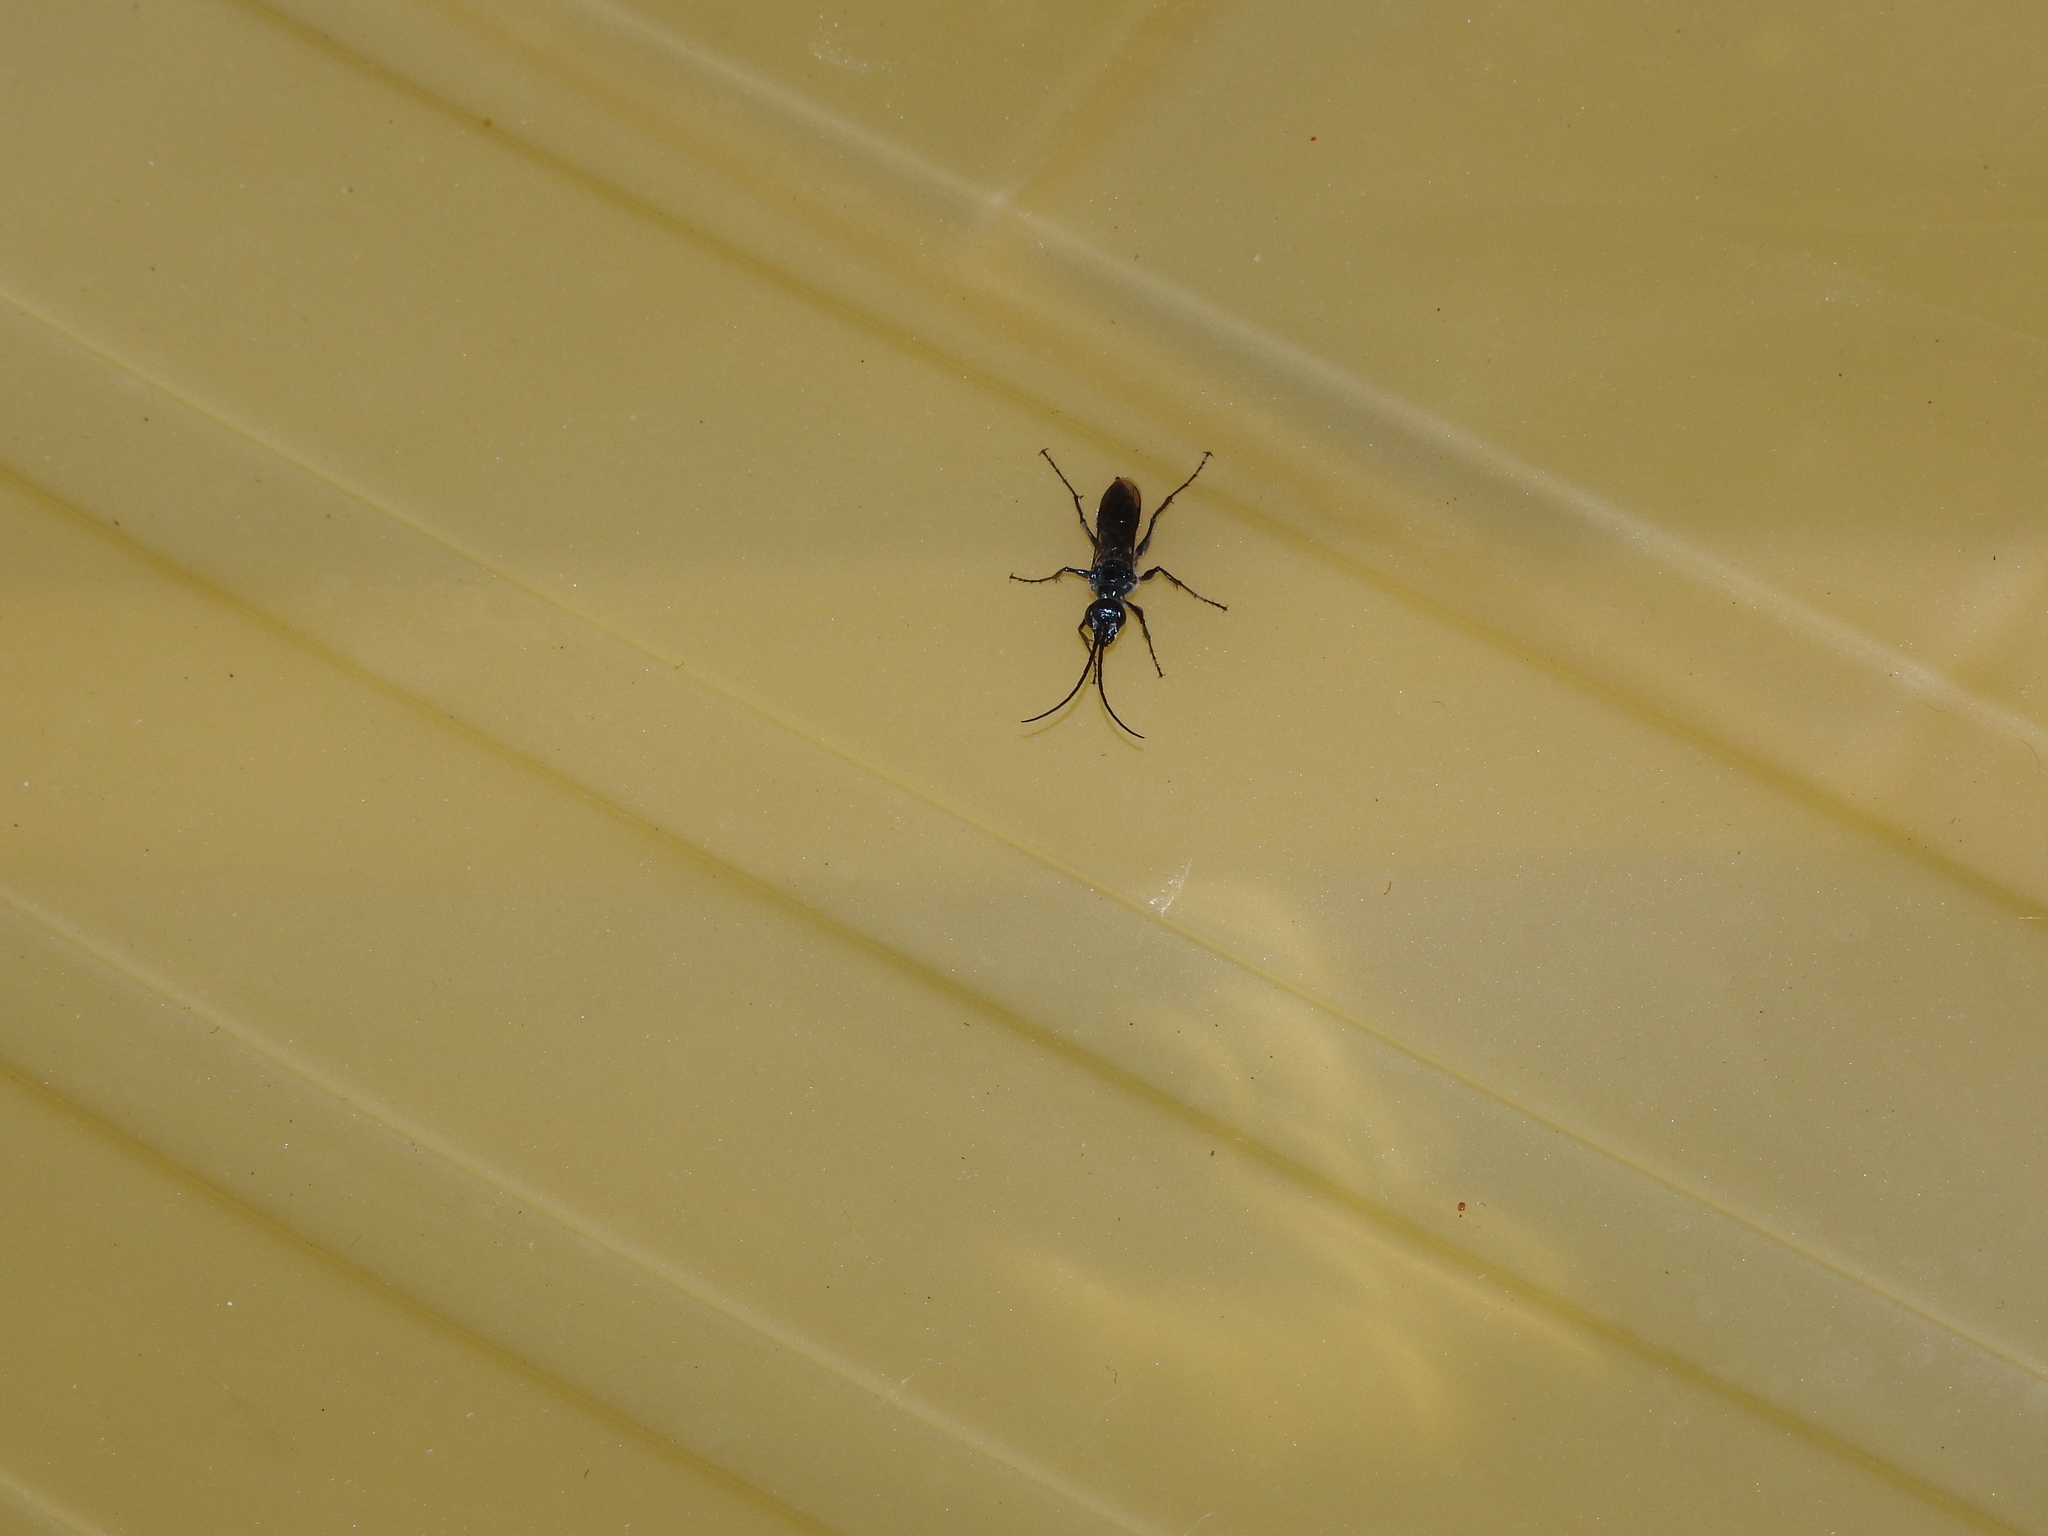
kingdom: Animalia
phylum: Arthropoda
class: Insecta
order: Hymenoptera
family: Ampulicidae
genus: Trirogma
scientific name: Trirogma caerulea
